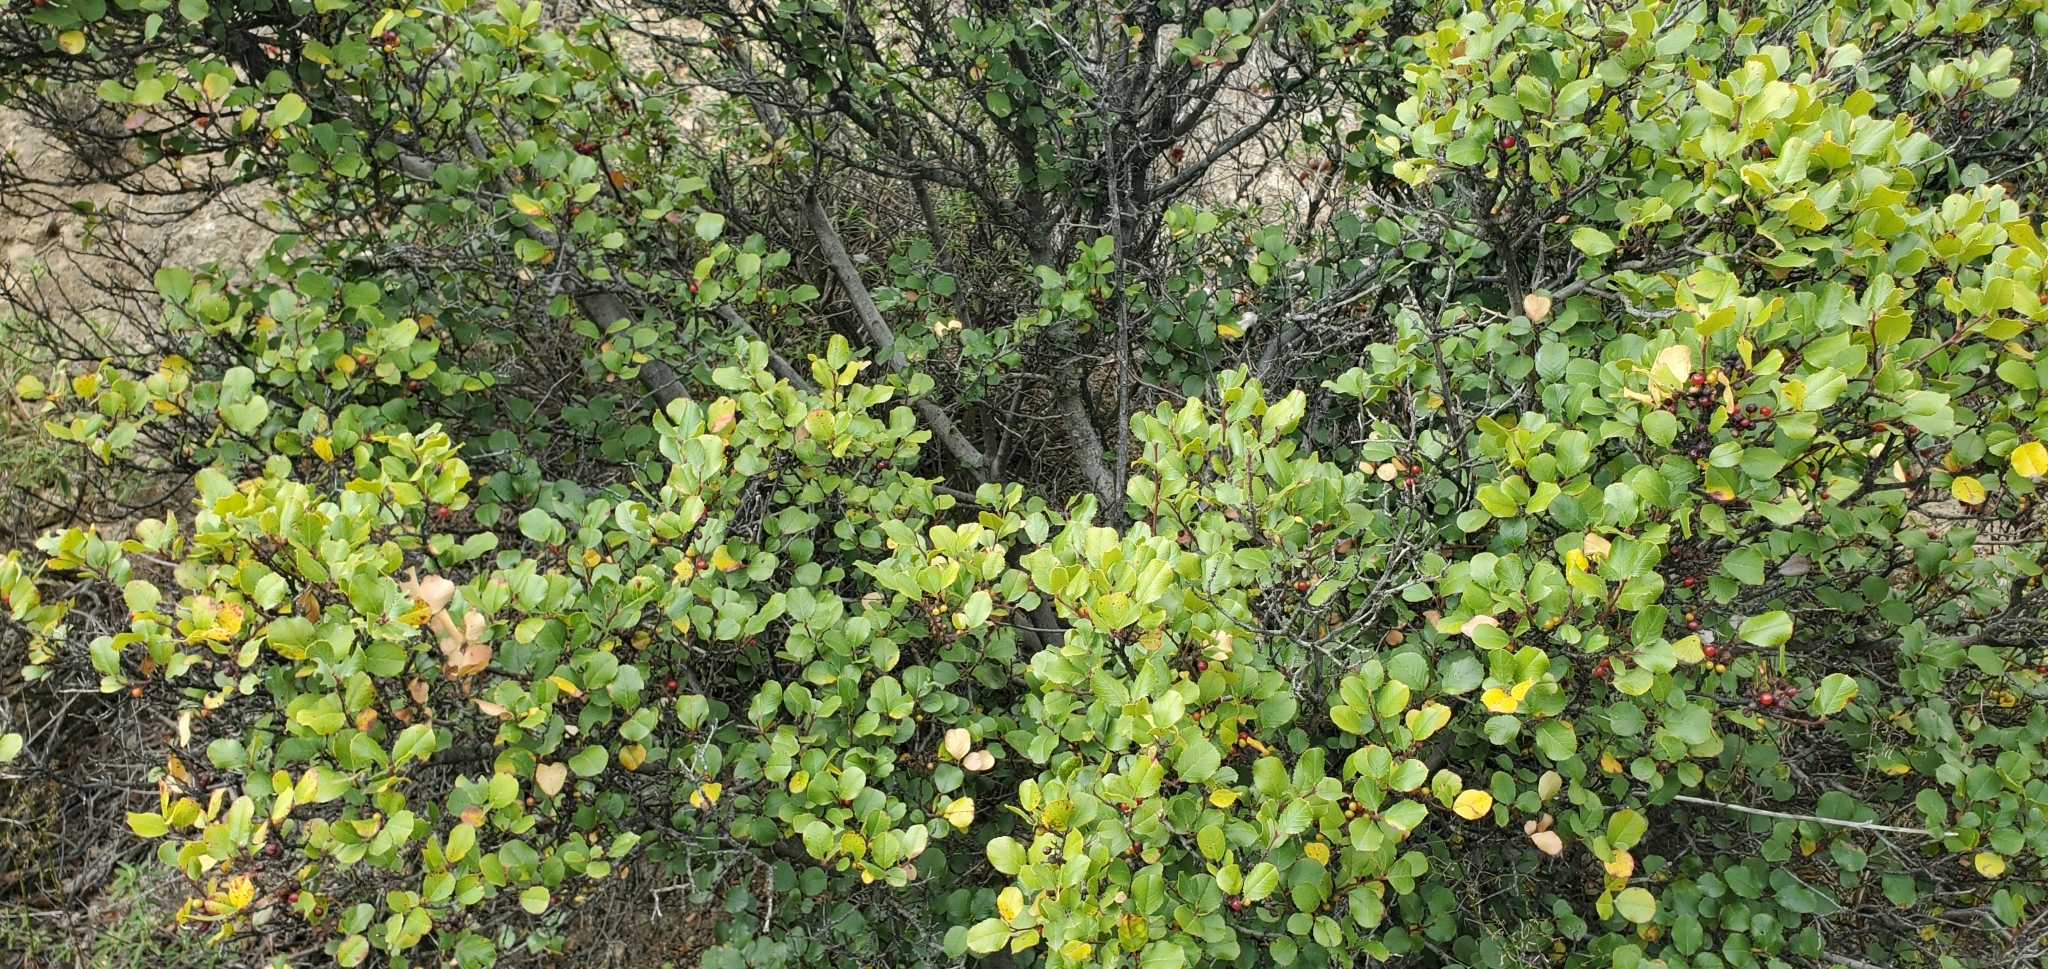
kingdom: Plantae
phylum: Tracheophyta
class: Magnoliopsida
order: Rosales
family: Rhamnaceae
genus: Endotropis
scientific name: Endotropis crocea
